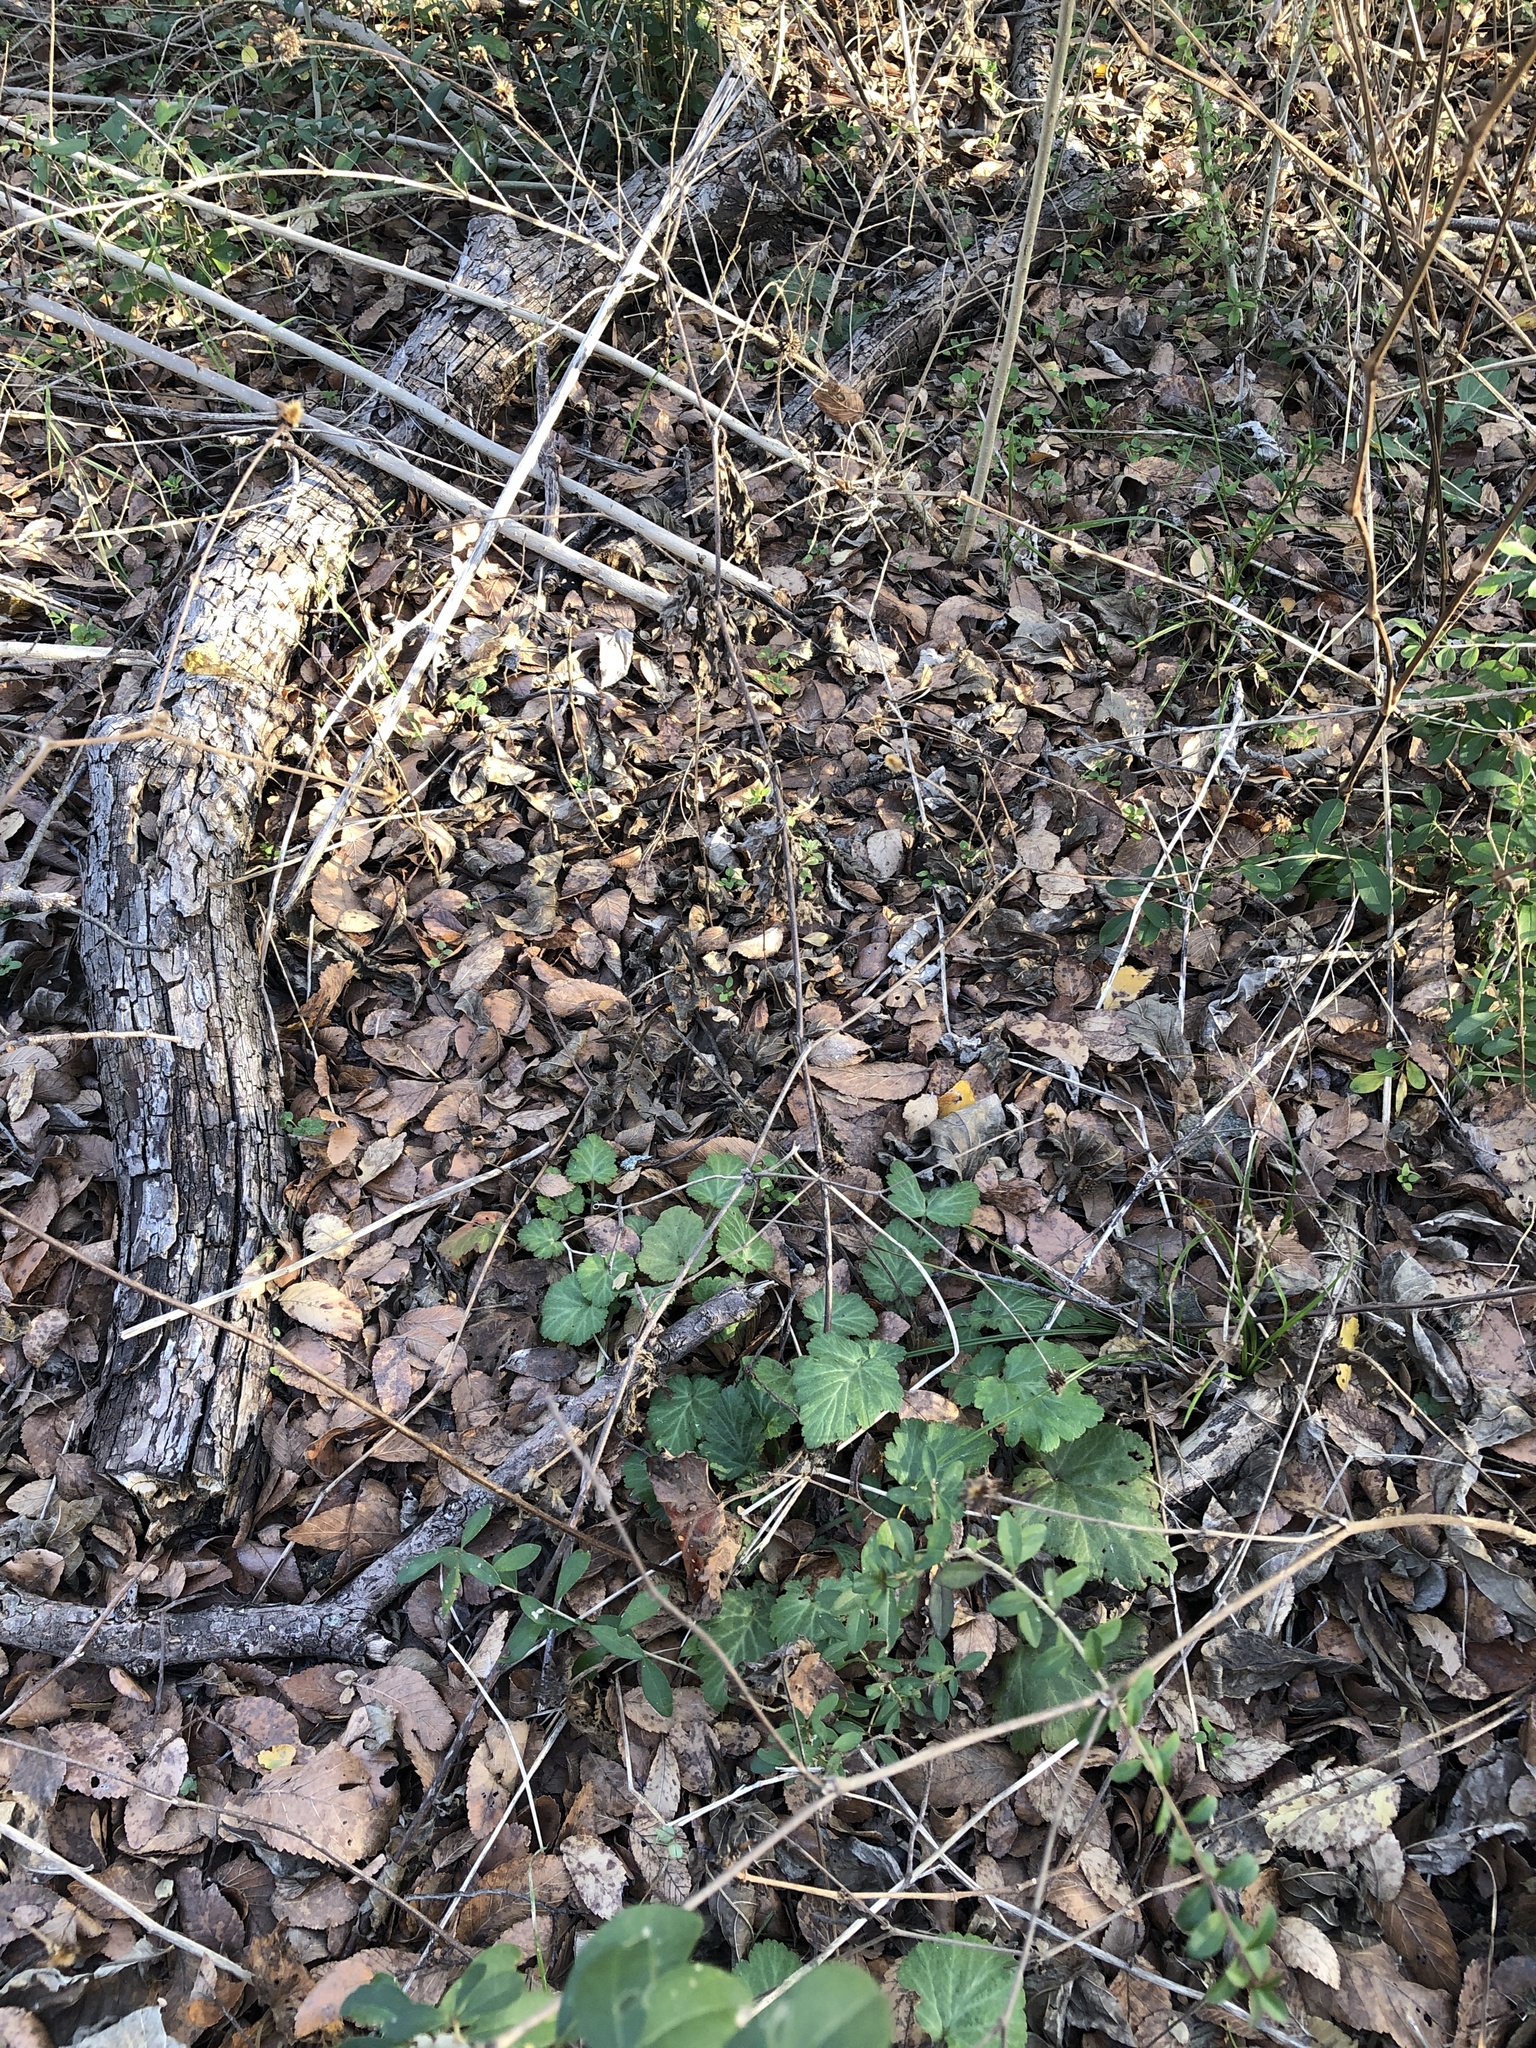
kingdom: Plantae
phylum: Tracheophyta
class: Magnoliopsida
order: Rosales
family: Rosaceae
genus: Geum
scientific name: Geum canadense
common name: White avens
